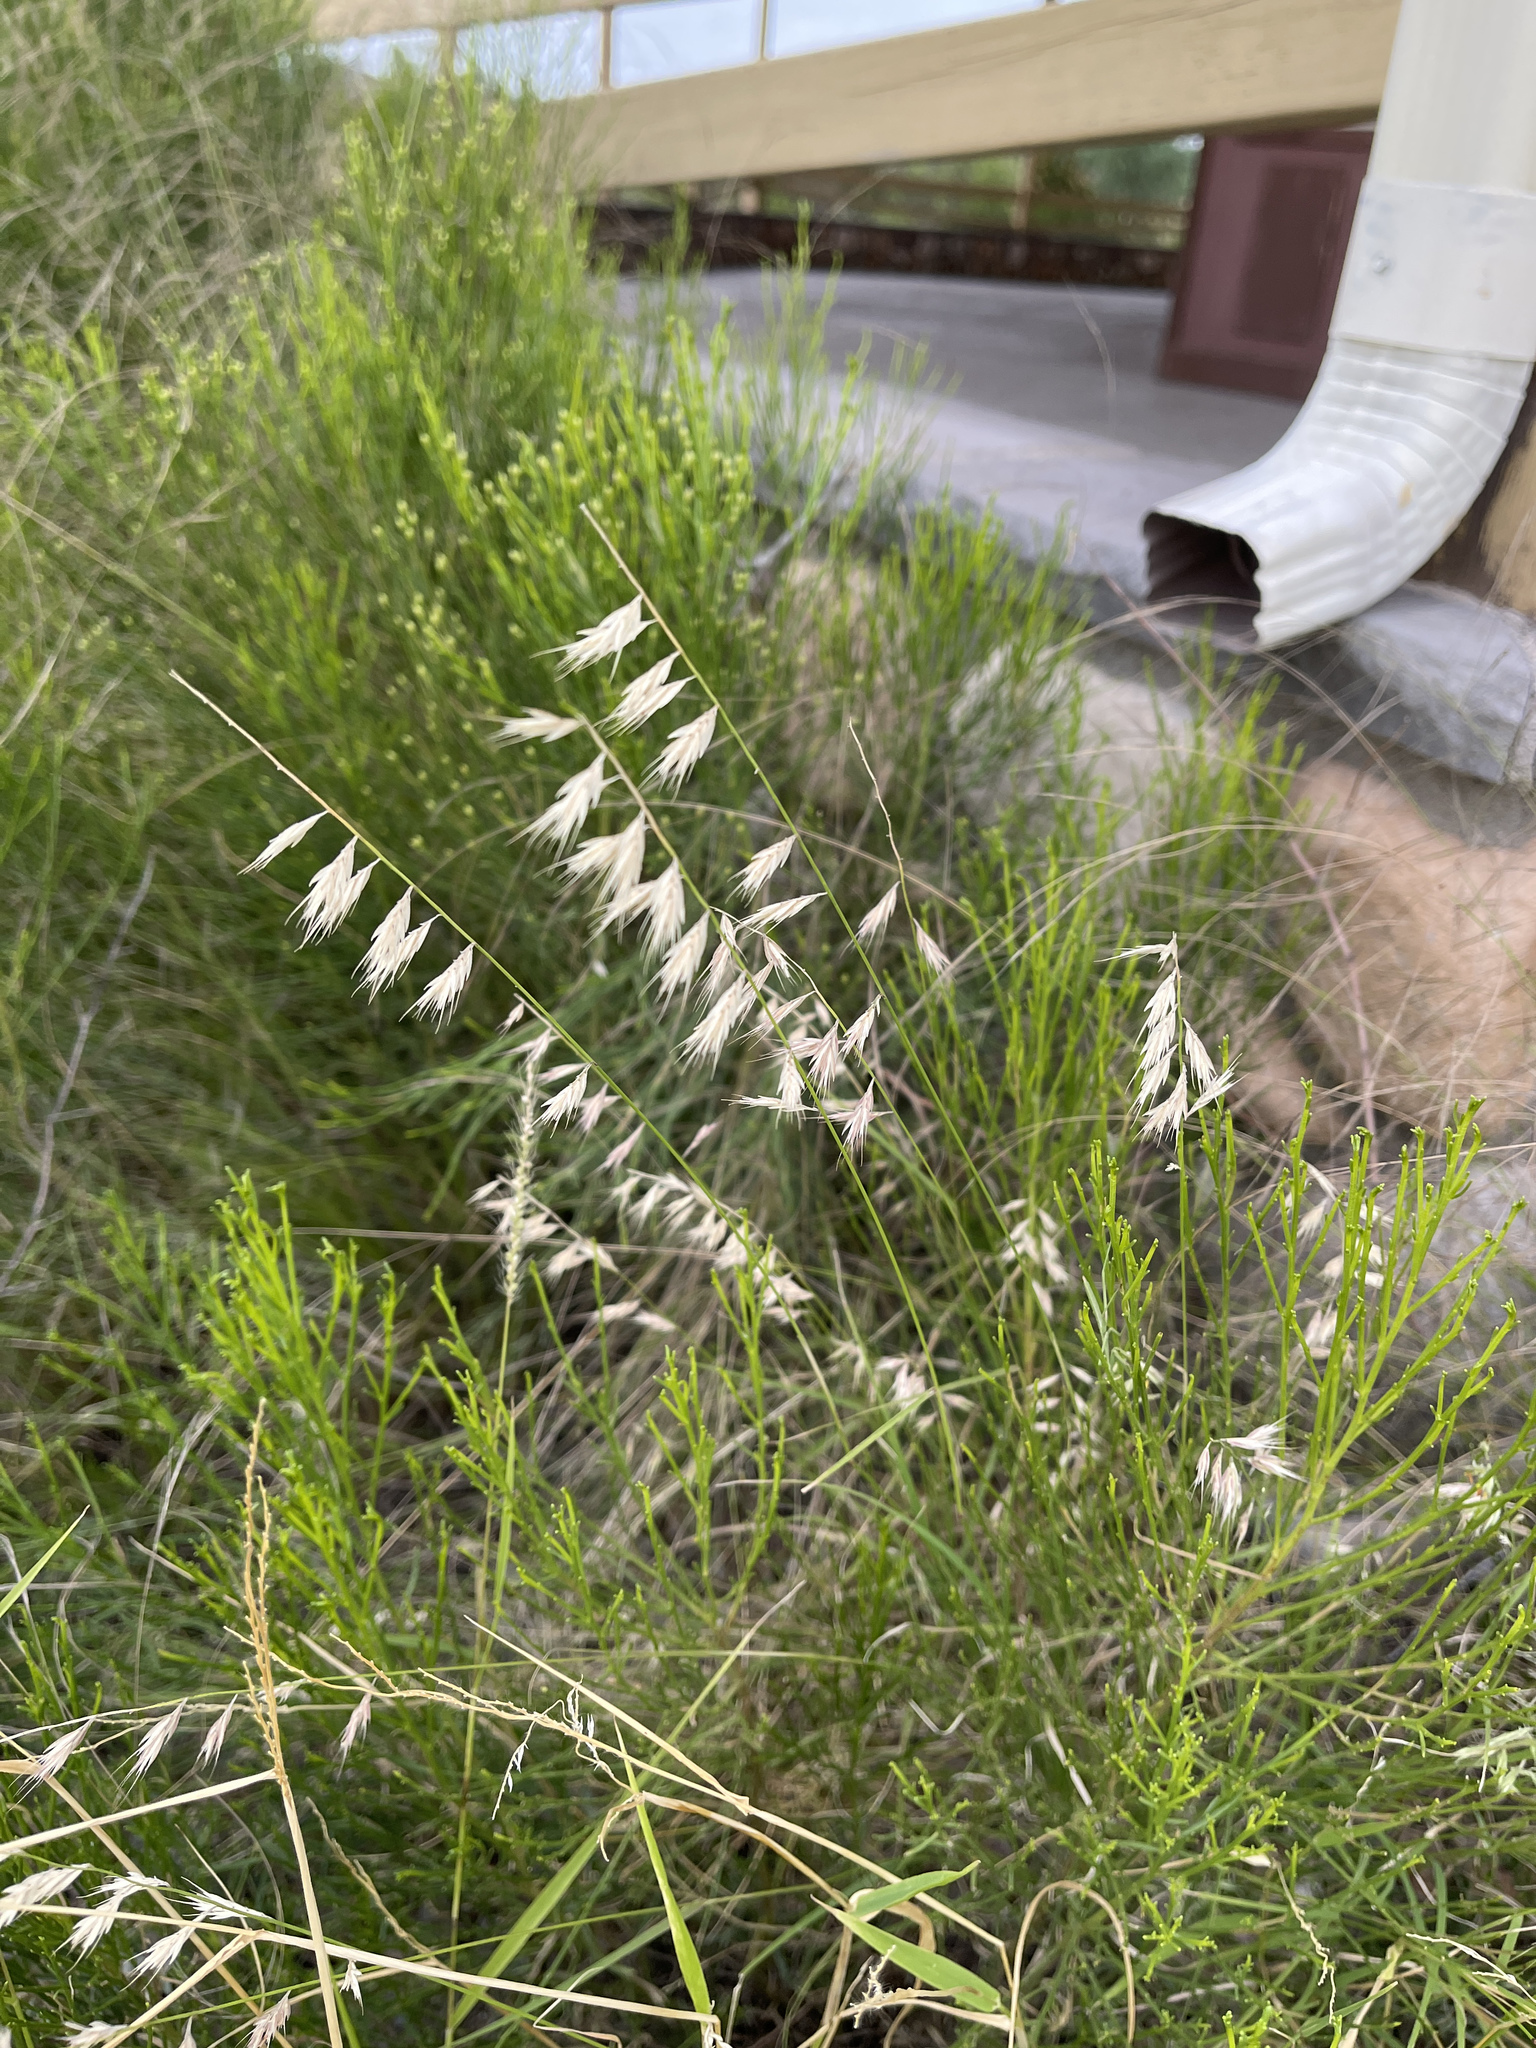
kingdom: Plantae
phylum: Tracheophyta
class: Liliopsida
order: Poales
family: Poaceae
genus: Bouteloua
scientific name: Bouteloua curtipendula
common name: Side-oats grama
